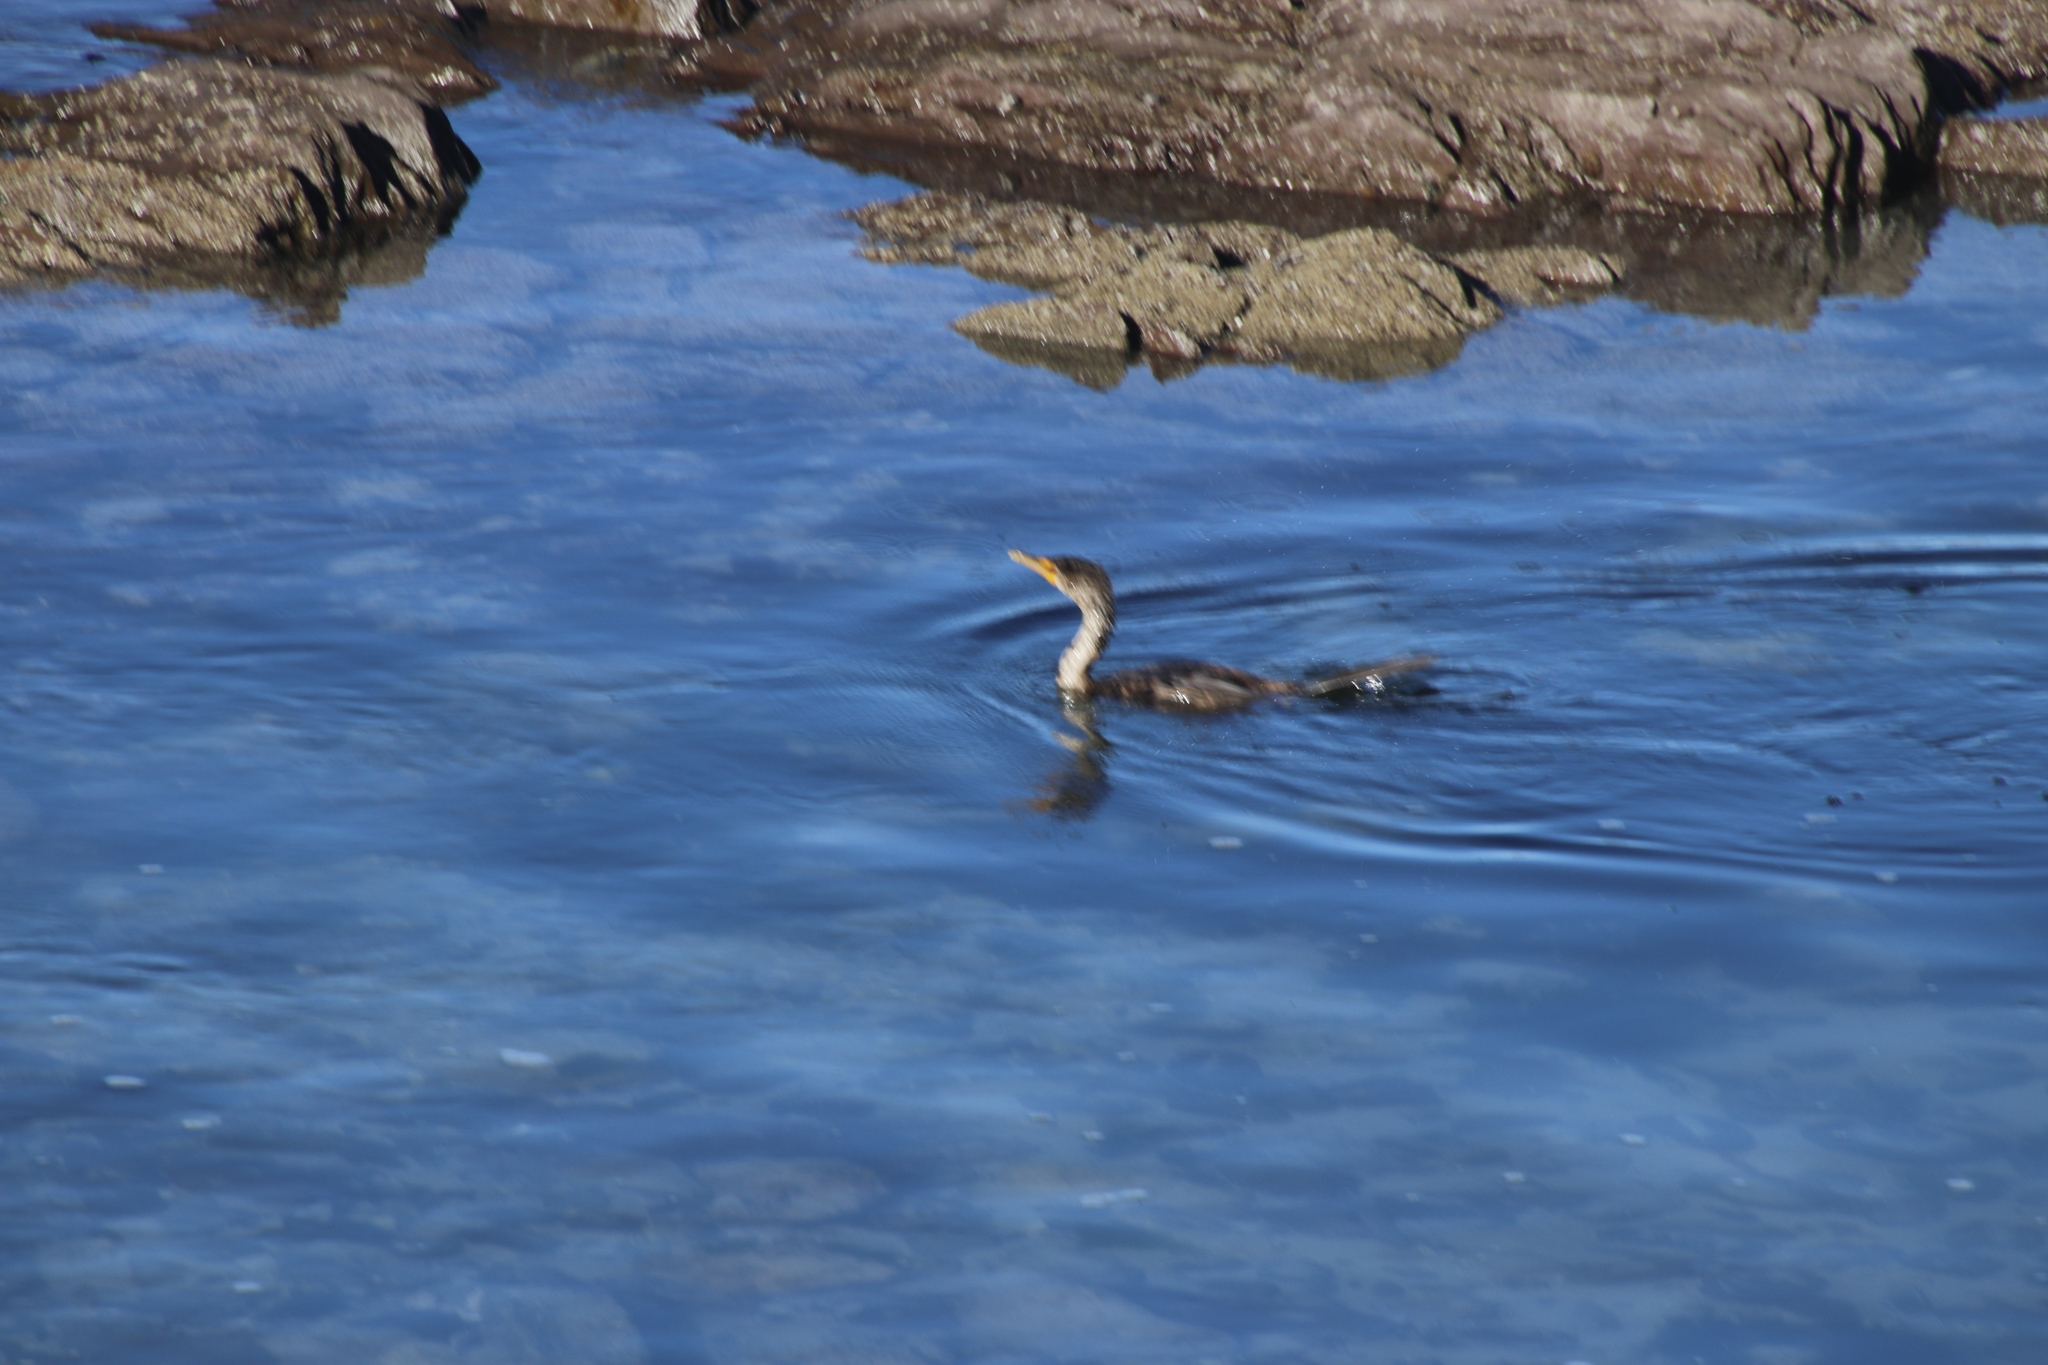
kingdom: Animalia
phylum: Chordata
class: Aves
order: Suliformes
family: Phalacrocoracidae
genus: Phalacrocorax
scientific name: Phalacrocorax carbo
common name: Great cormorant
